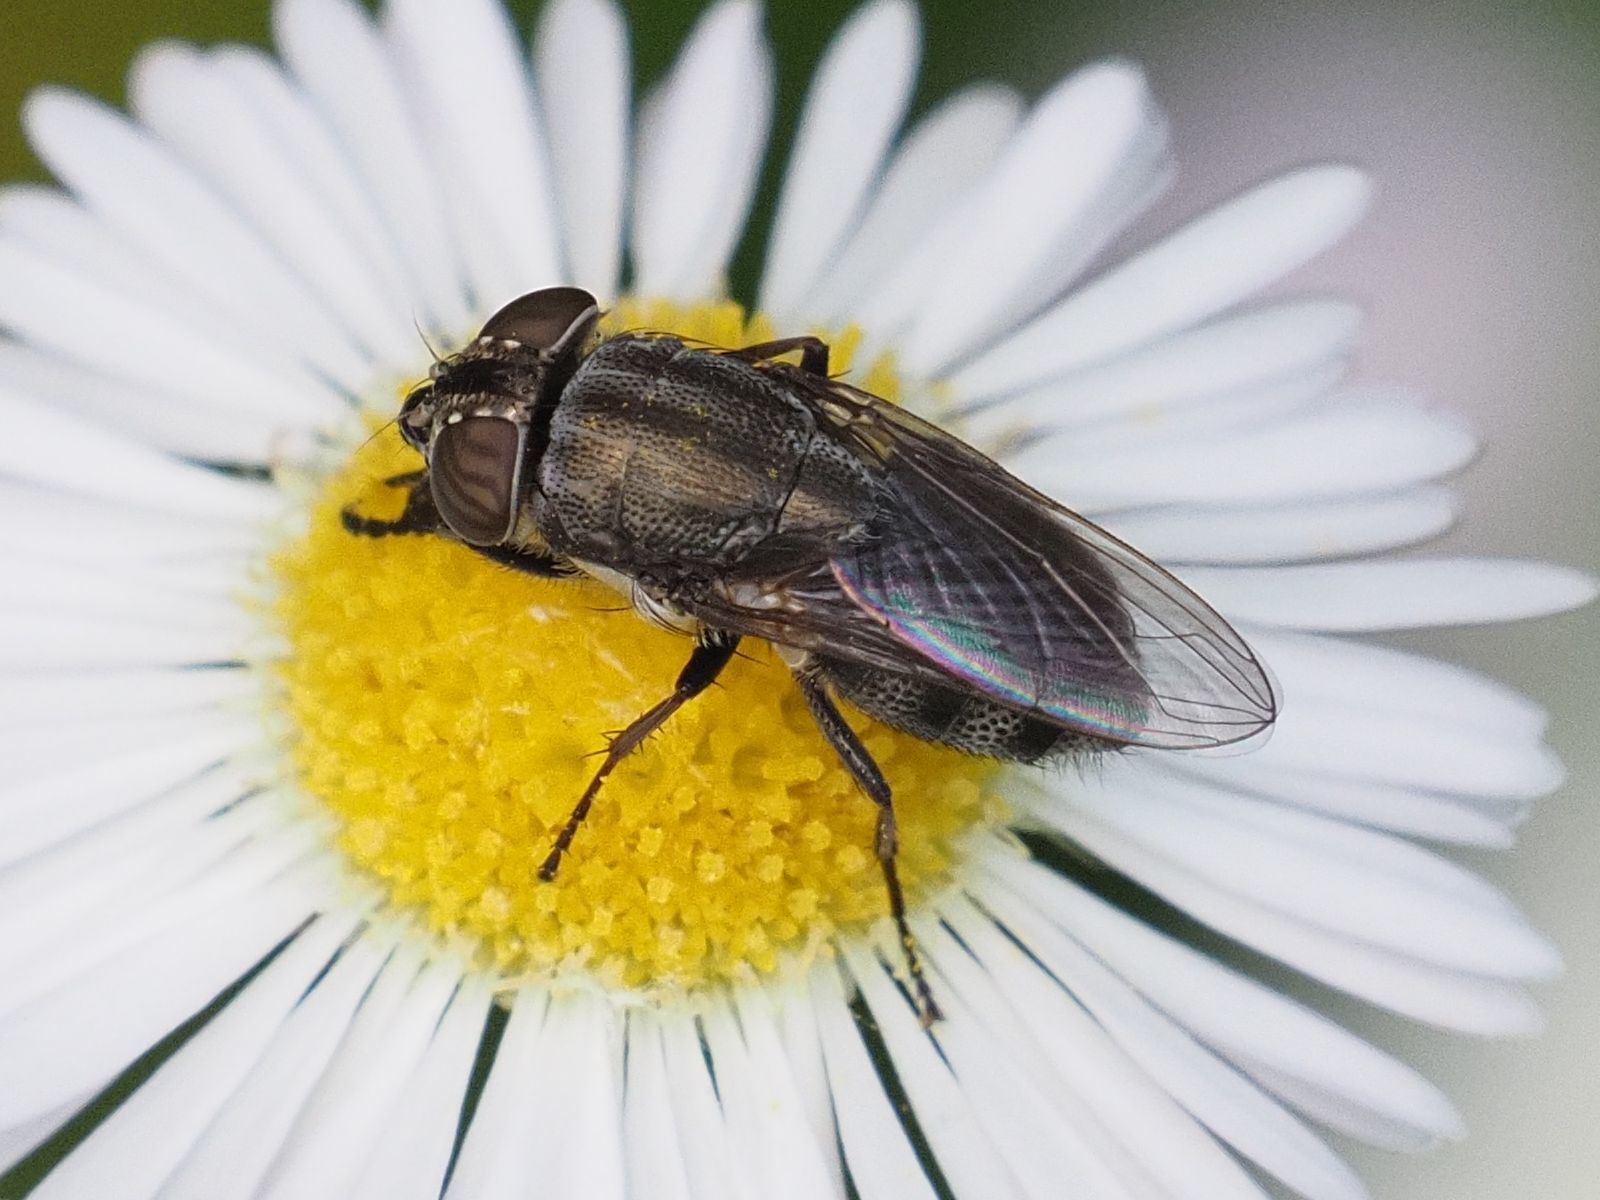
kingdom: Animalia
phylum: Arthropoda
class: Insecta
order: Diptera
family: Calliphoridae
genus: Stomorhina
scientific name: Stomorhina lunata
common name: Locust blowfly
